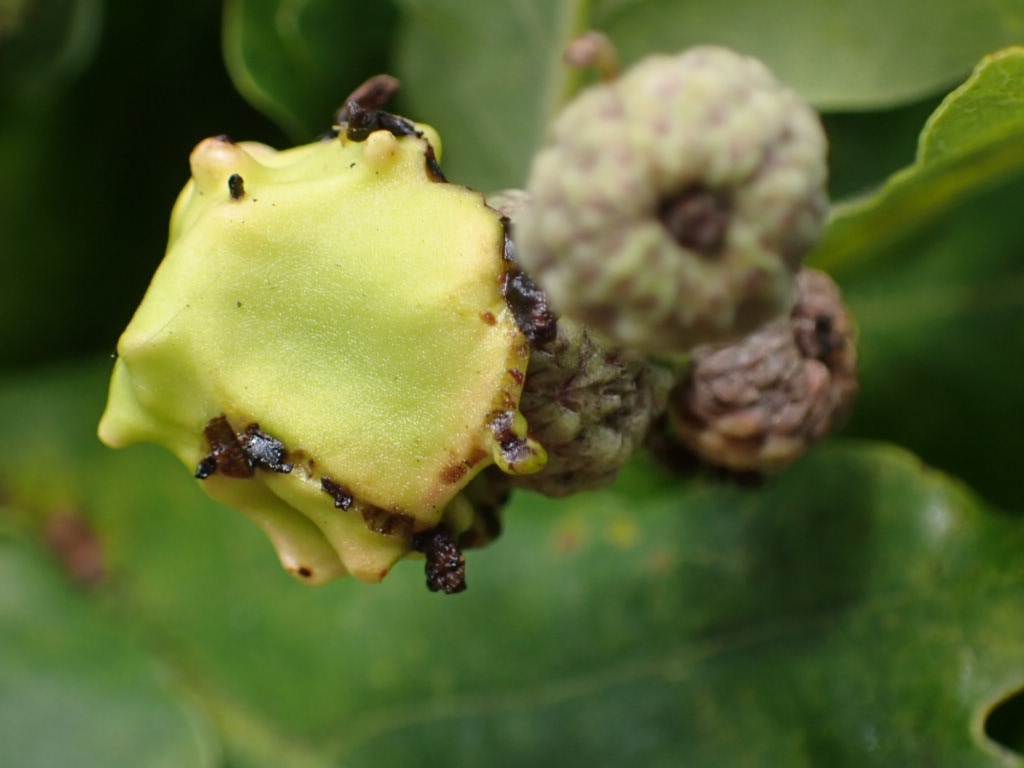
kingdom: Animalia
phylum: Arthropoda
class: Insecta
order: Hymenoptera
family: Cynipidae
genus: Andricus
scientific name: Andricus quercuscalicis
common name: Knopper gall
